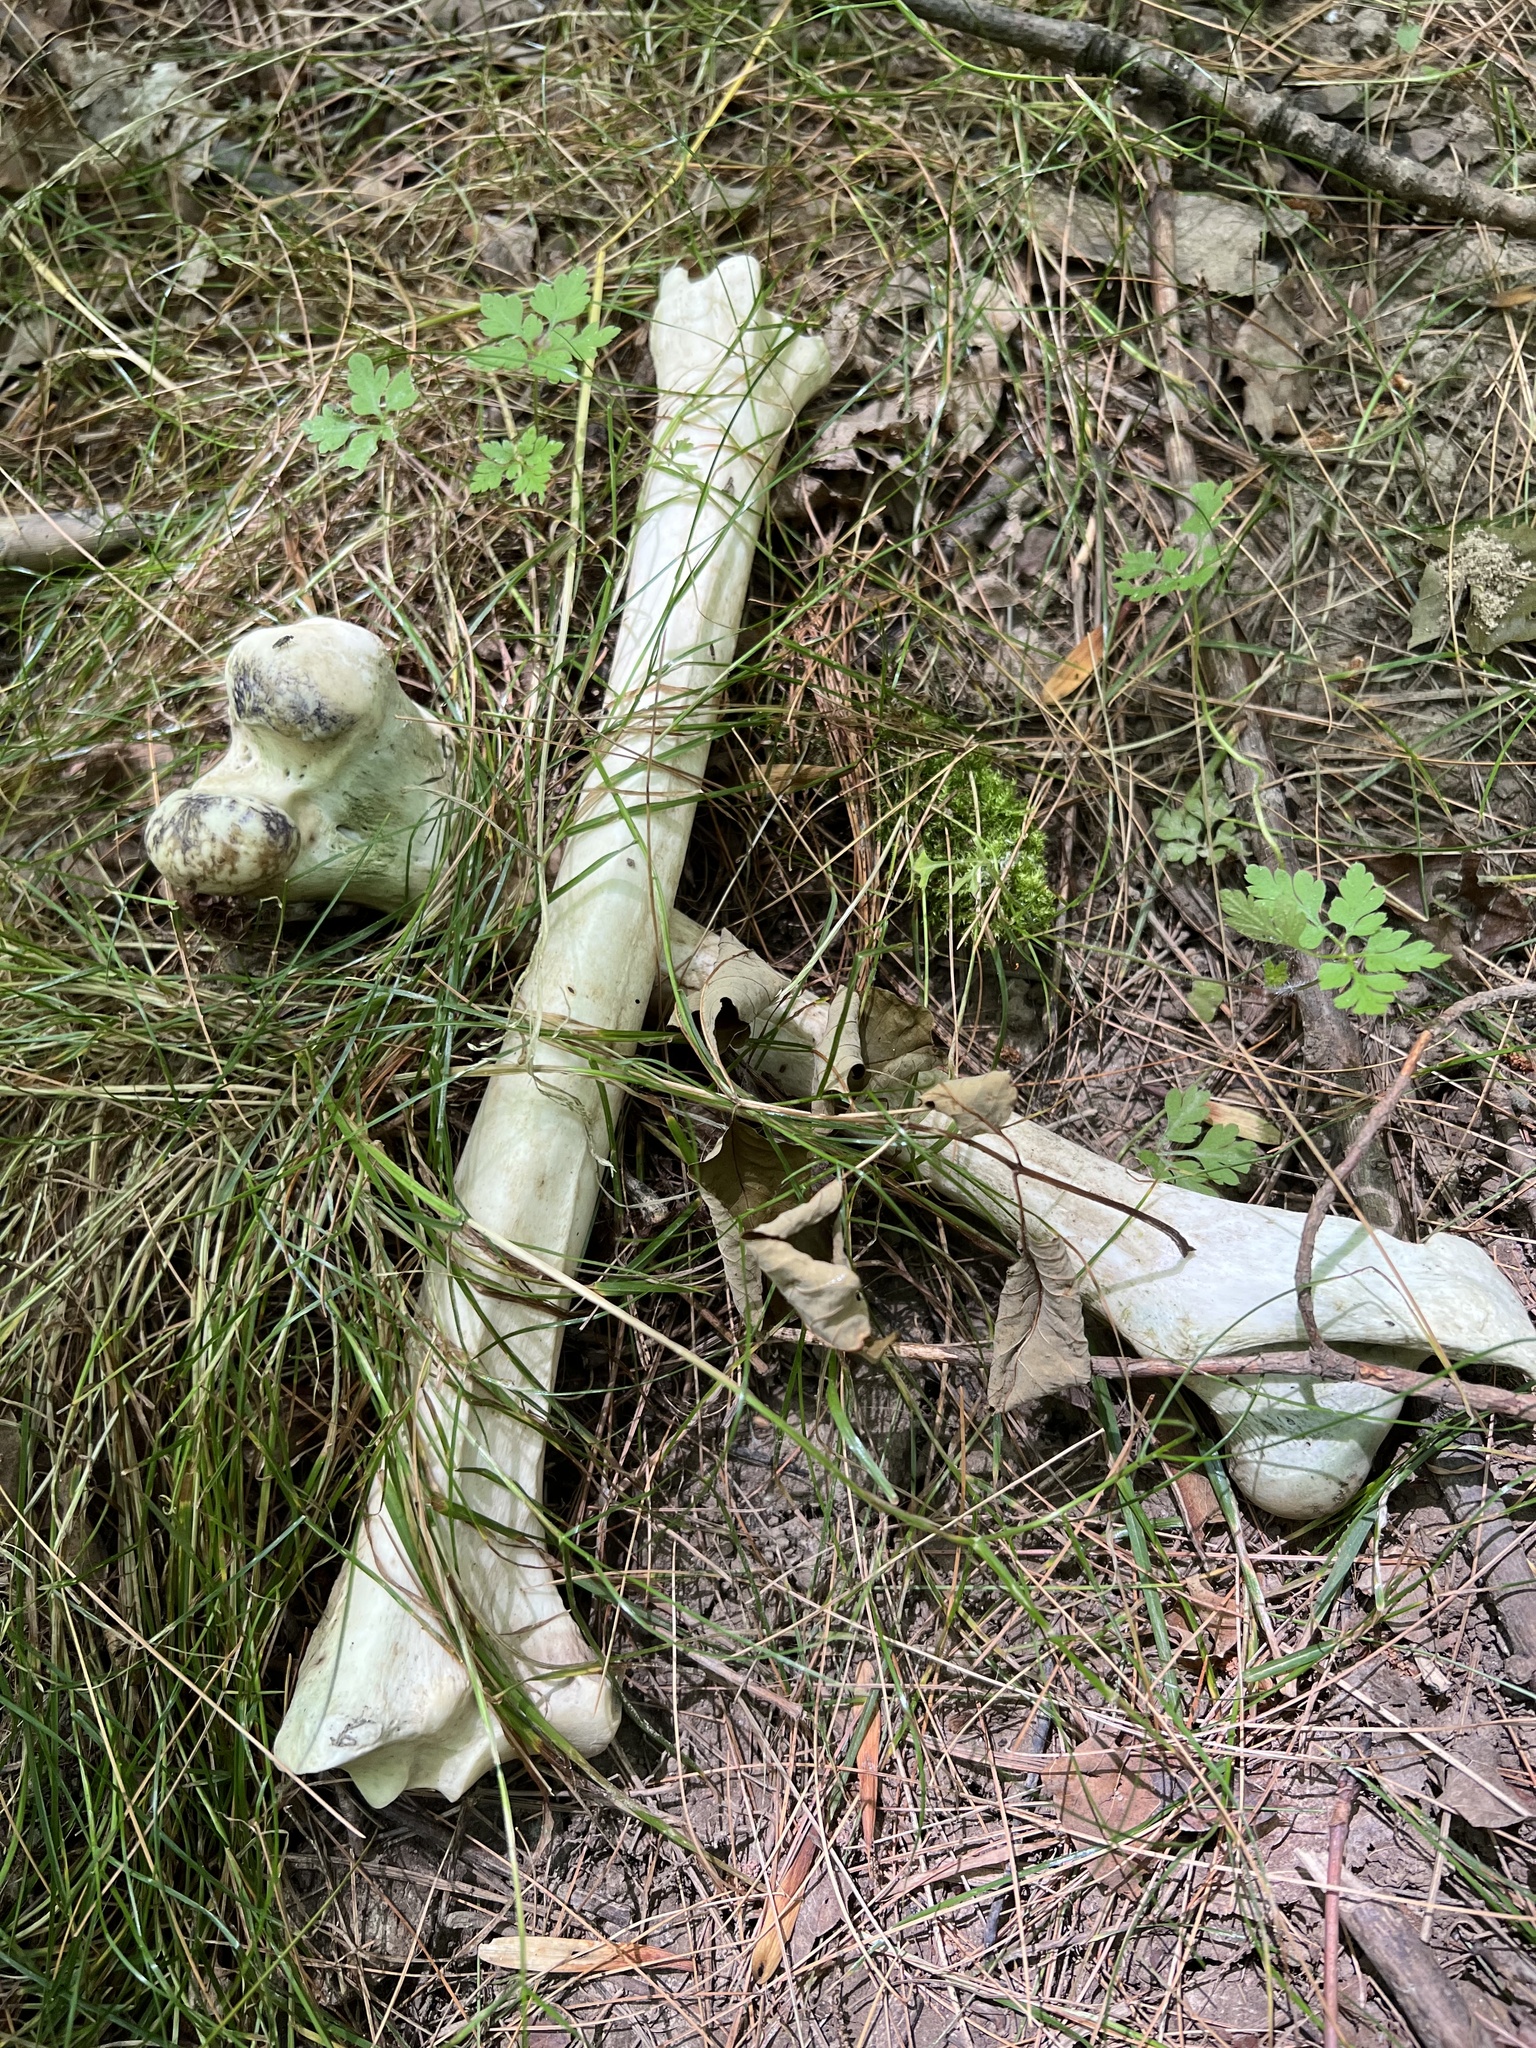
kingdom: Animalia
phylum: Chordata
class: Mammalia
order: Artiodactyla
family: Cervidae
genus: Odocoileus
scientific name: Odocoileus virginianus
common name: White-tailed deer
